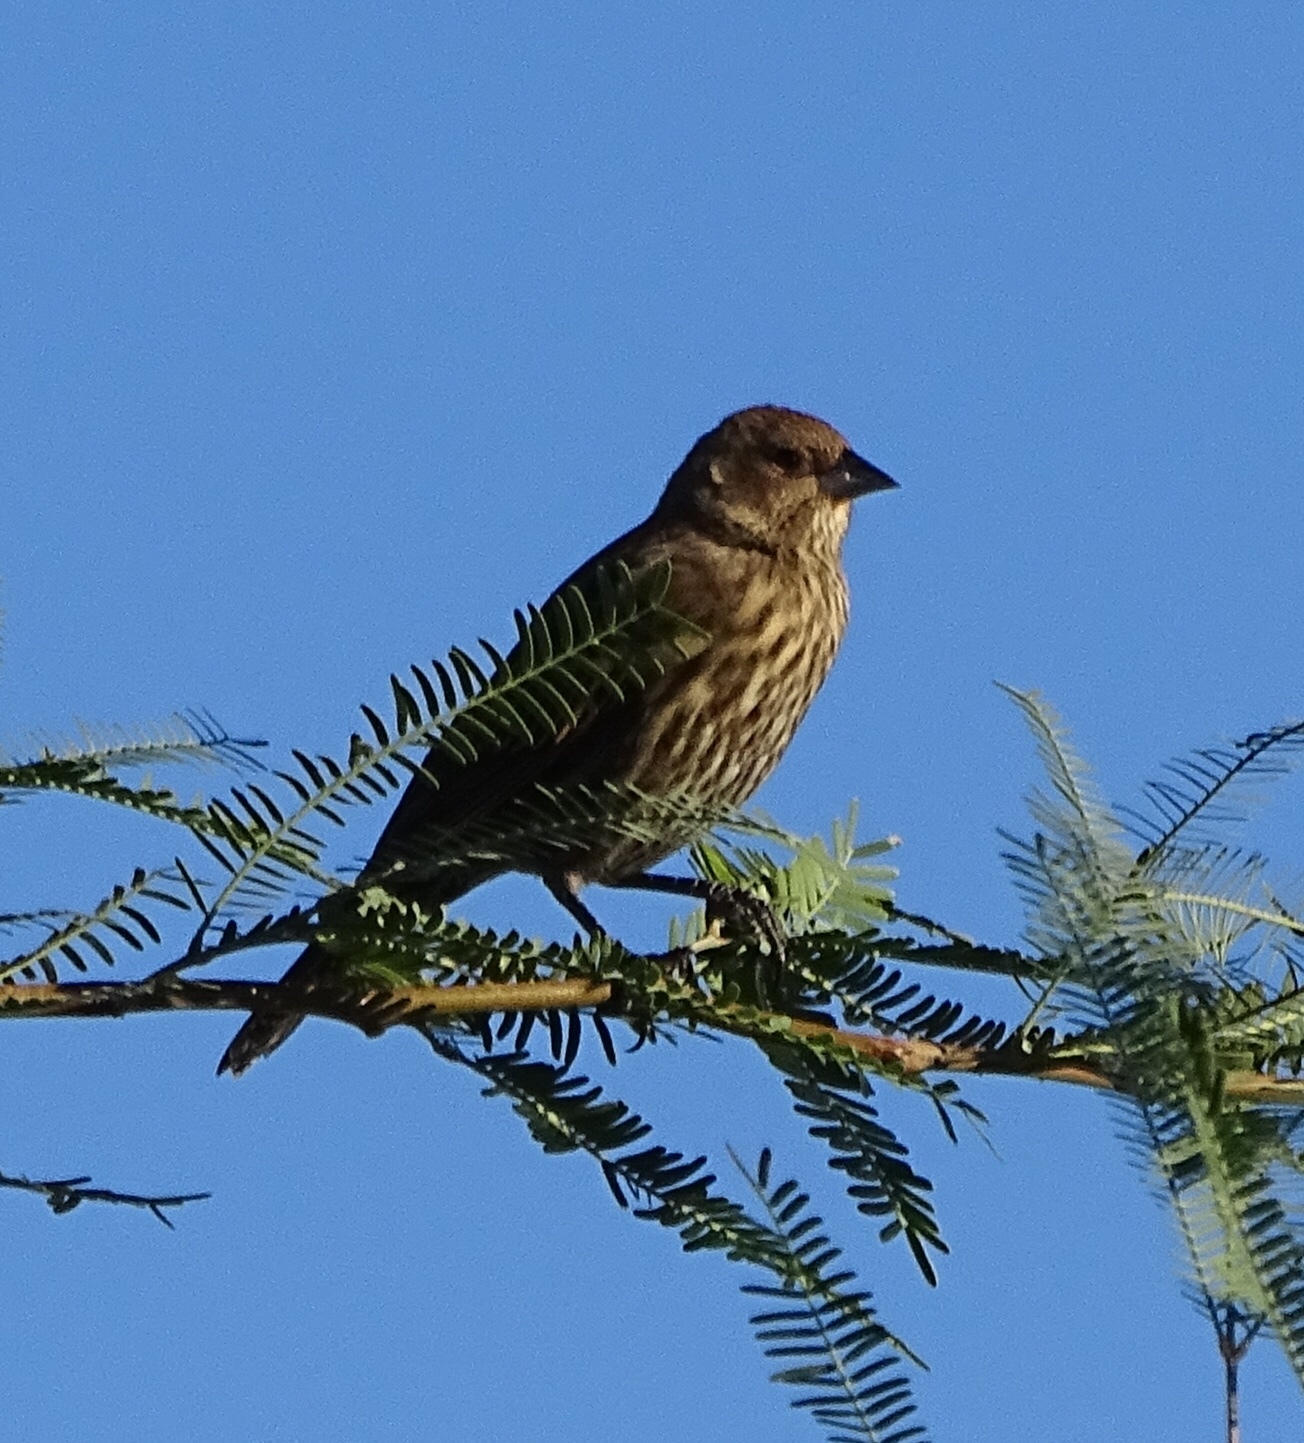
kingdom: Animalia
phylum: Chordata
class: Aves
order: Passeriformes
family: Icteridae
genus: Agelaius
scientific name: Agelaius phoeniceus
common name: Red-winged blackbird
